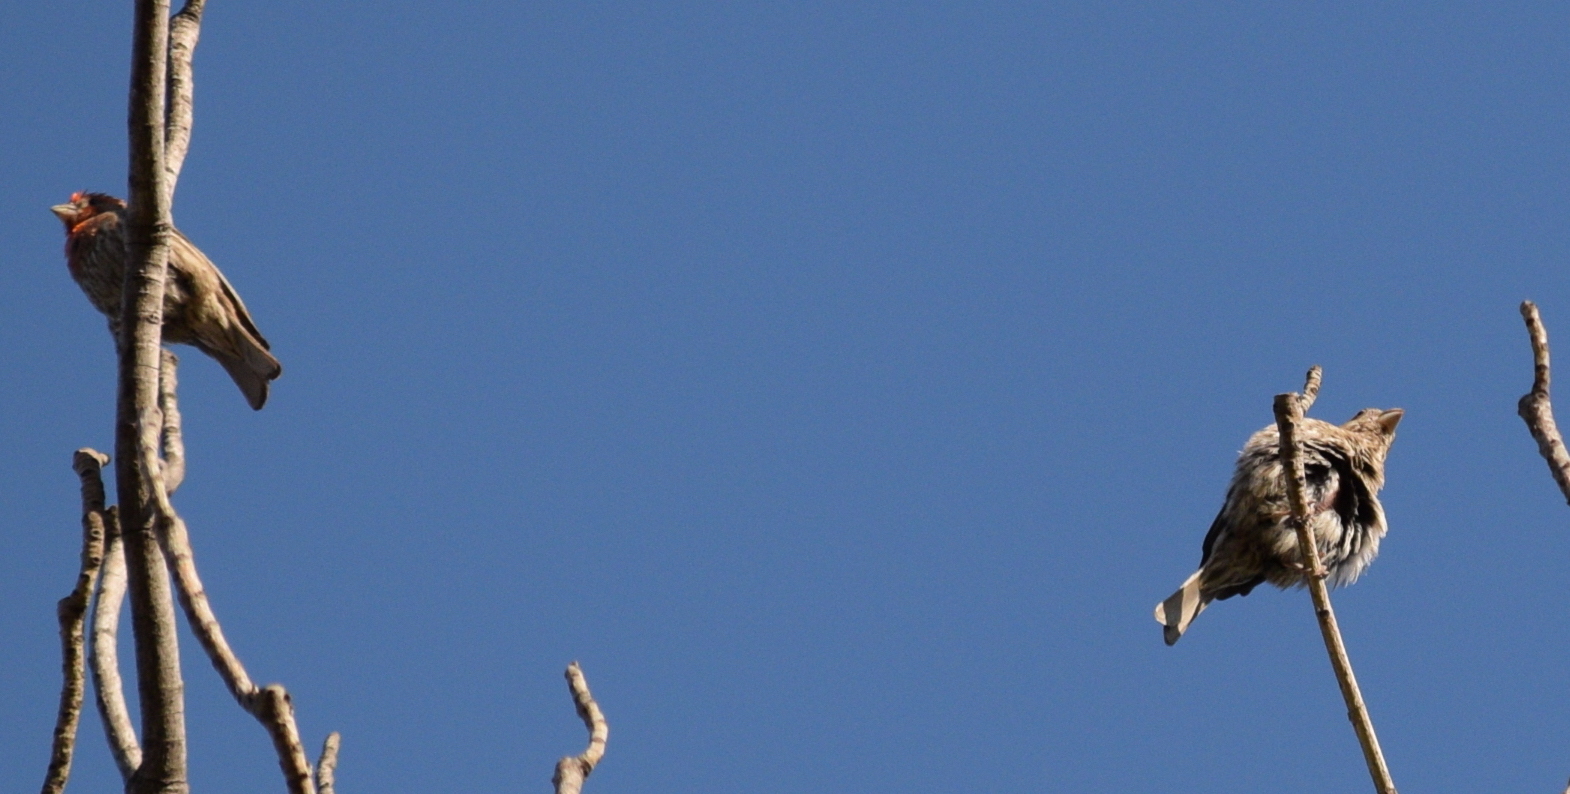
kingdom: Animalia
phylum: Chordata
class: Aves
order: Passeriformes
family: Fringillidae
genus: Haemorhous
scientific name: Haemorhous mexicanus
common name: House finch
